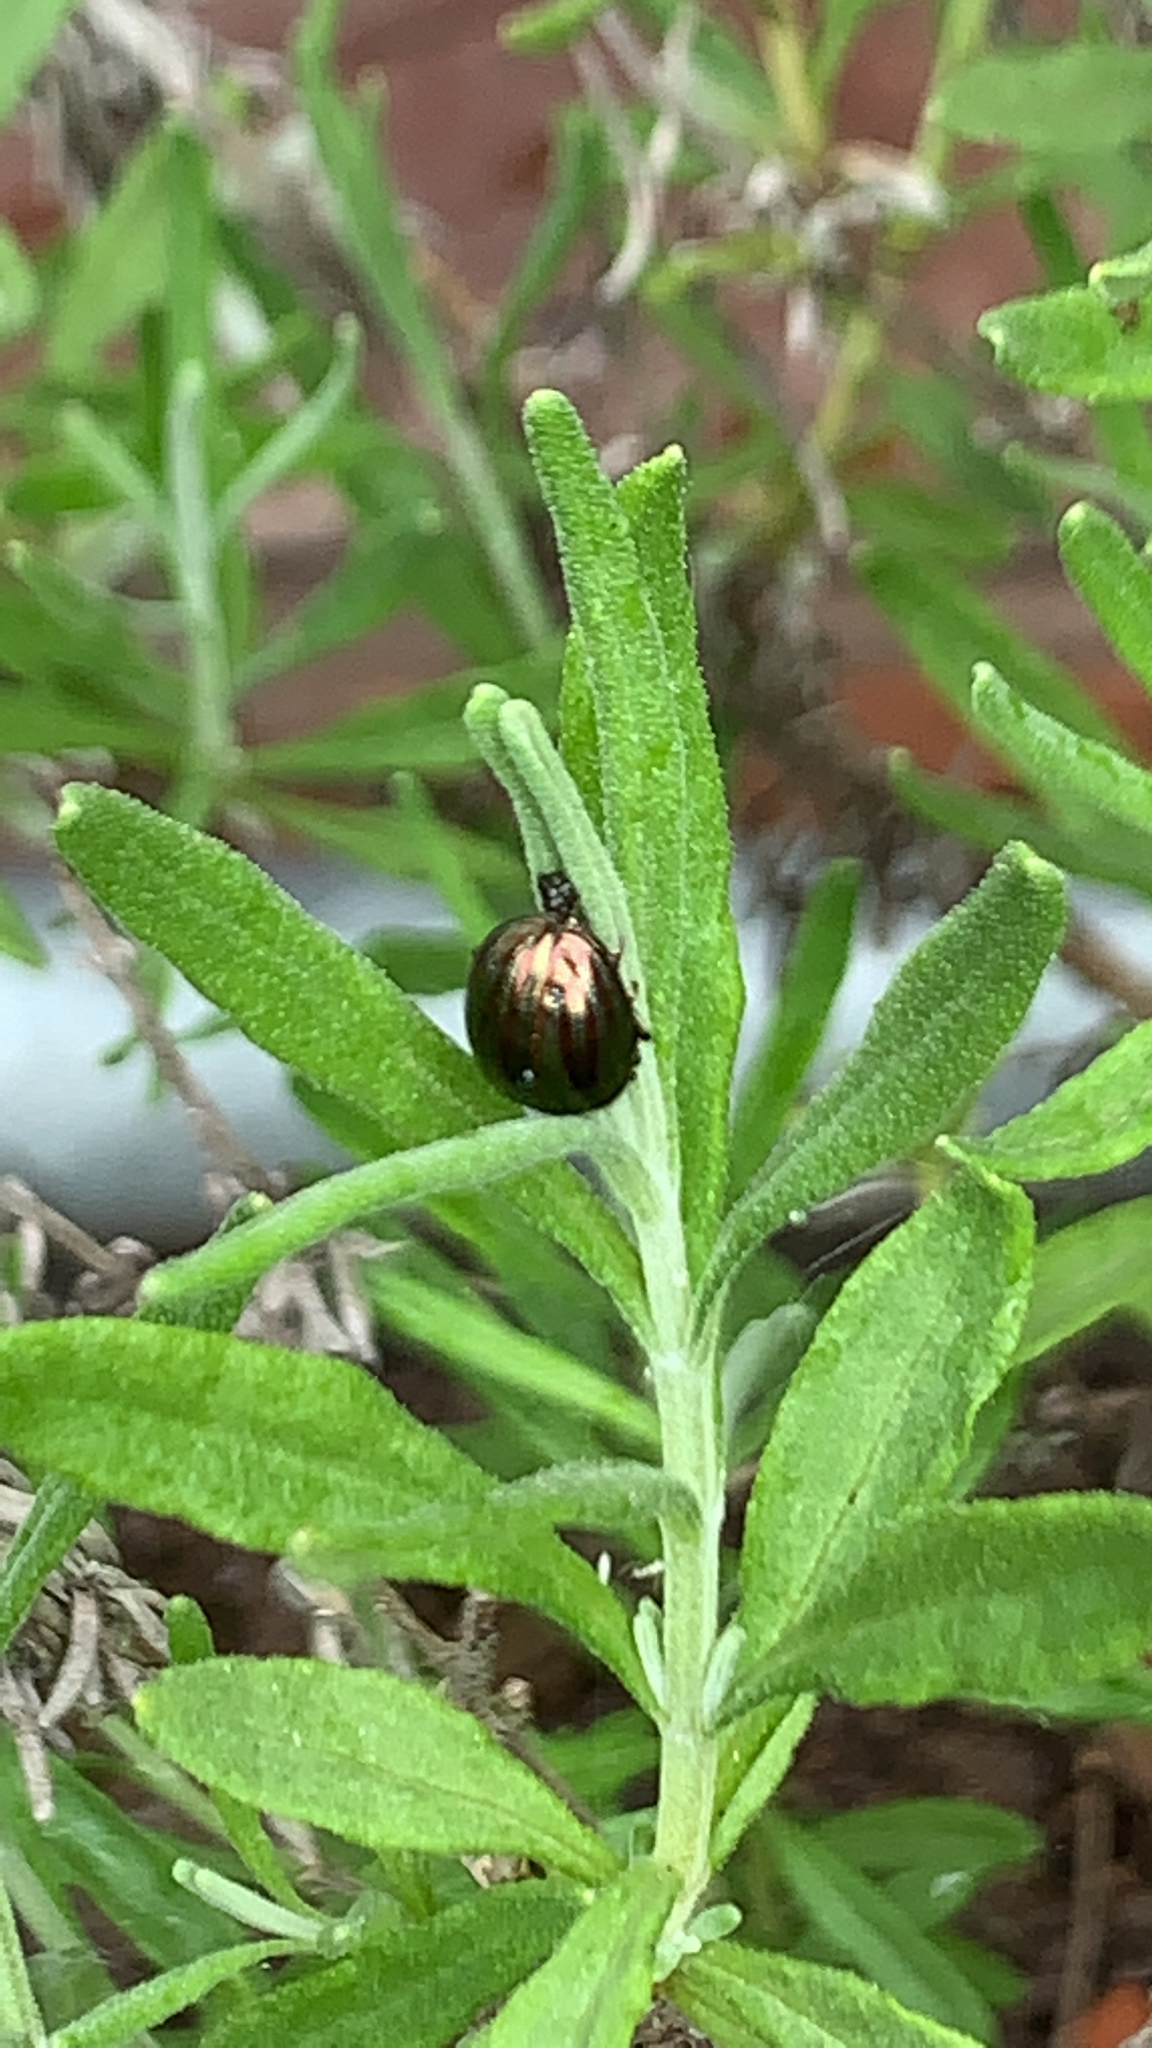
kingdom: Animalia
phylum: Arthropoda
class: Insecta
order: Coleoptera
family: Chrysomelidae
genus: Chrysolina
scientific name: Chrysolina americana
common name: Rosemary beetle
